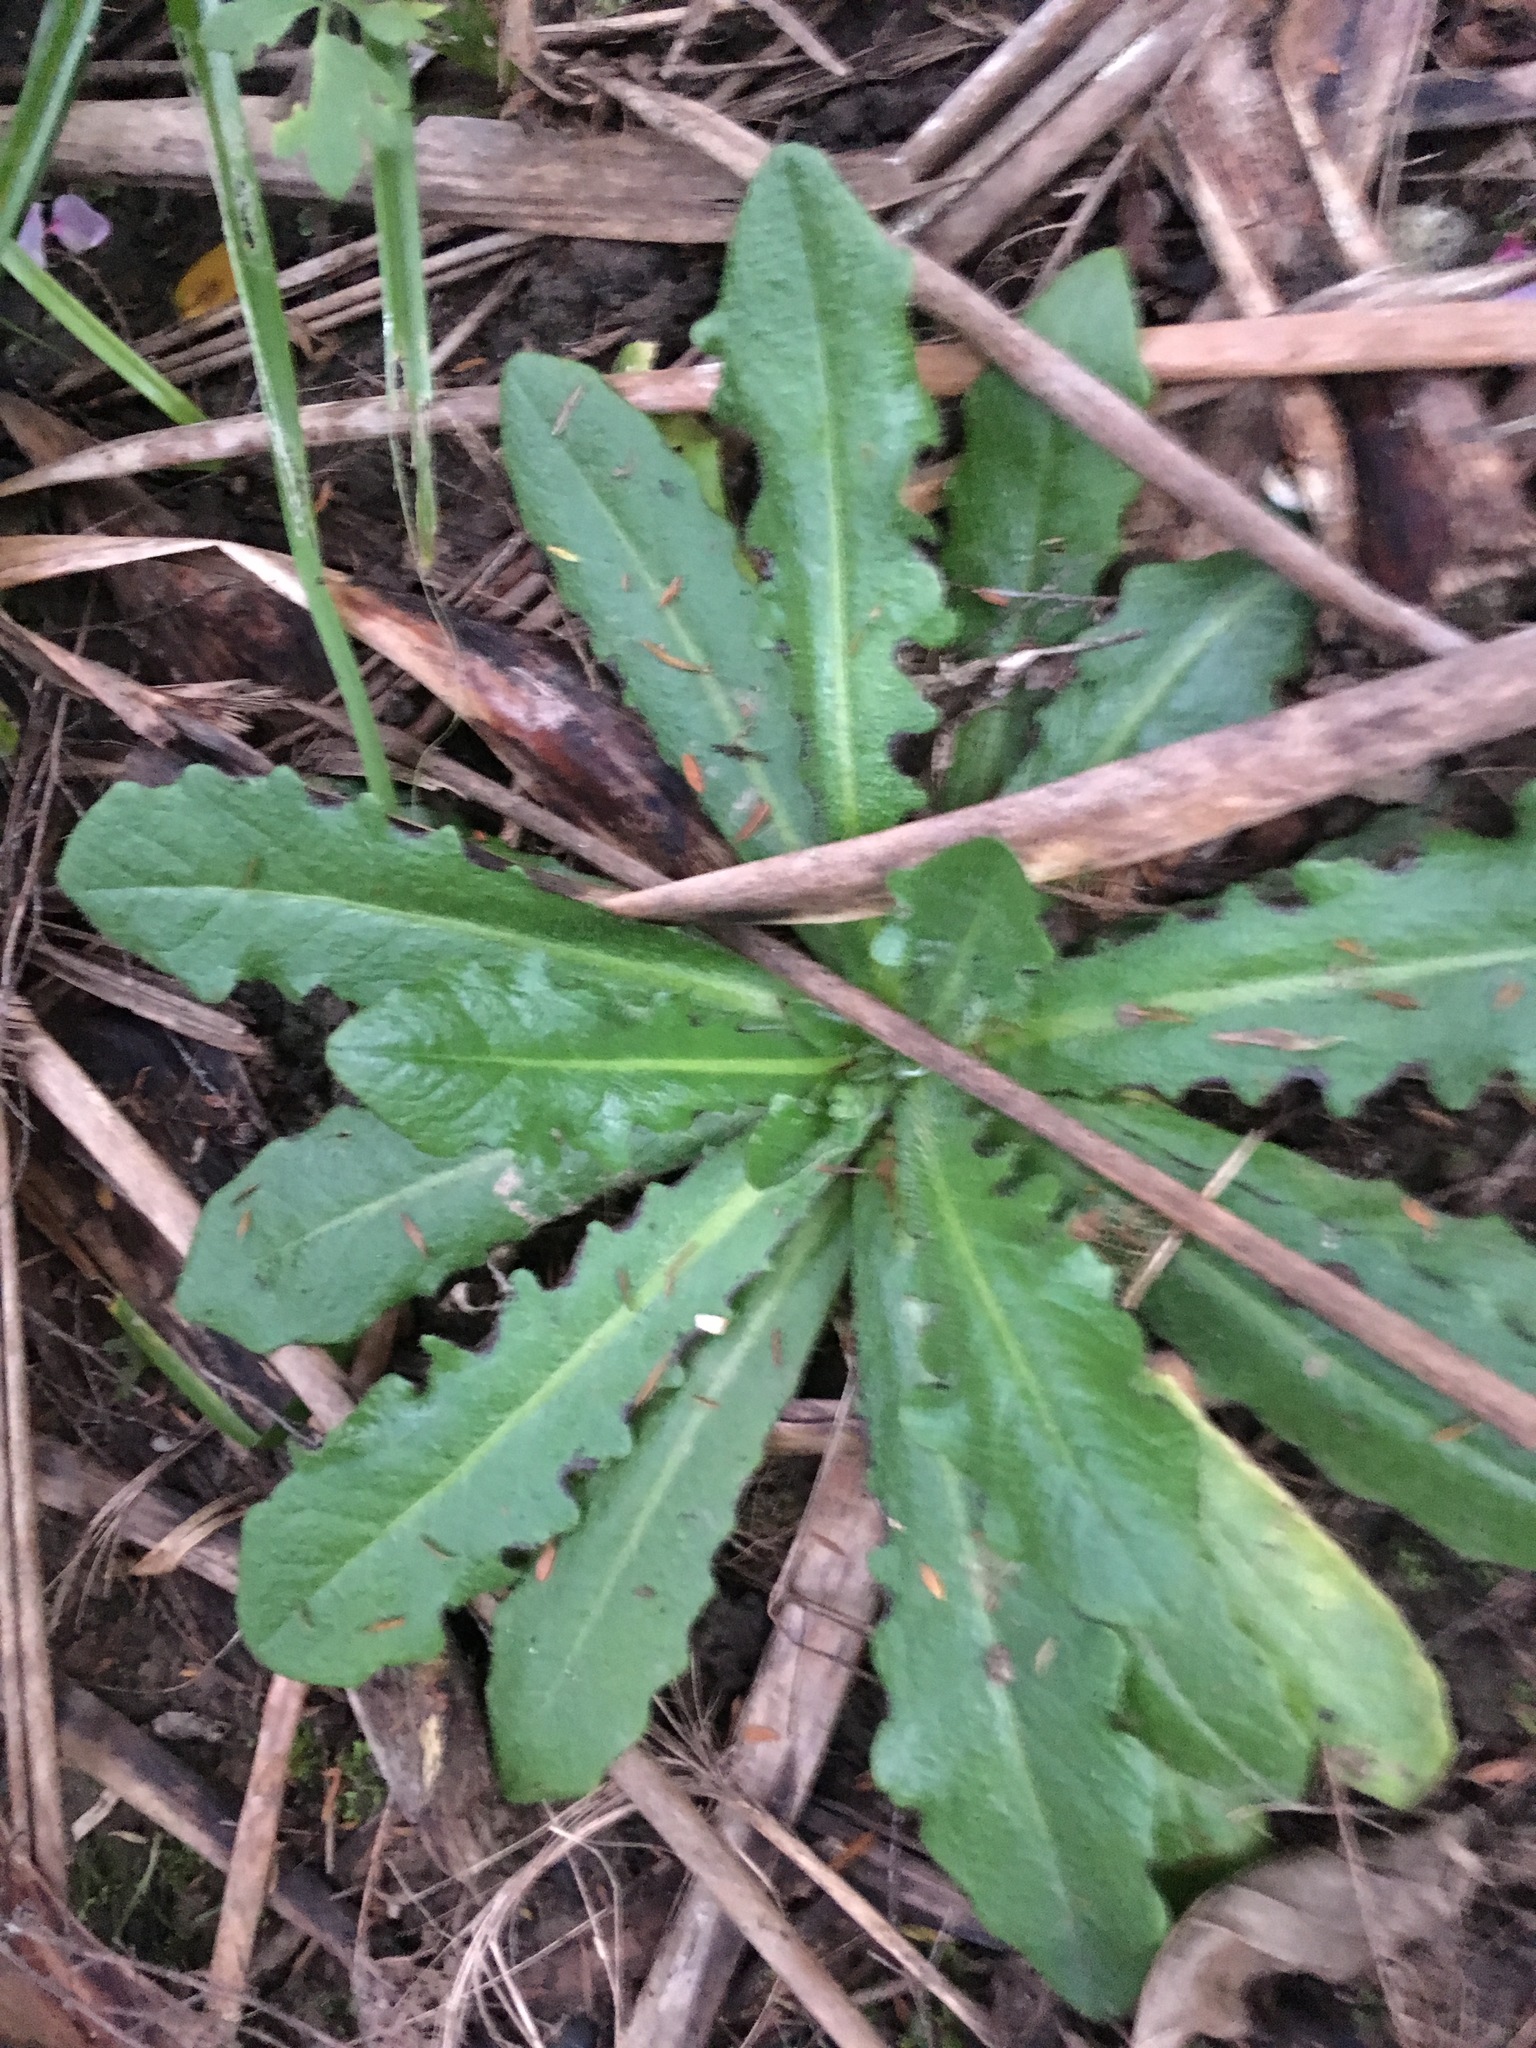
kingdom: Plantae
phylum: Tracheophyta
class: Magnoliopsida
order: Asterales
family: Asteraceae
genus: Hypochaeris
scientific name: Hypochaeris radicata
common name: Flatweed
